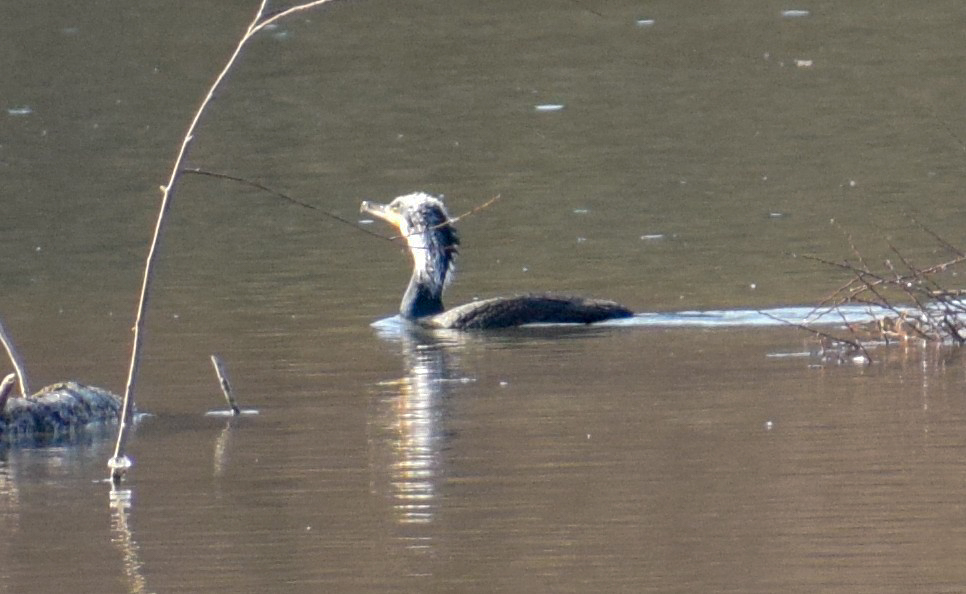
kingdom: Animalia
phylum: Chordata
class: Aves
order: Suliformes
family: Phalacrocoracidae
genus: Phalacrocorax
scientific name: Phalacrocorax carbo
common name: Great cormorant
